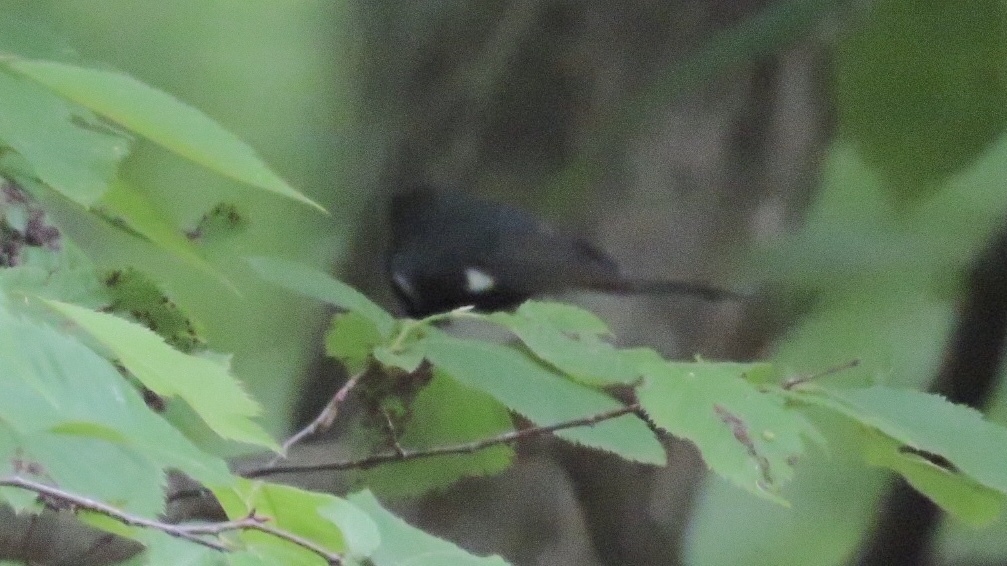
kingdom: Animalia
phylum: Chordata
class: Aves
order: Passeriformes
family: Parulidae
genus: Setophaga
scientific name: Setophaga caerulescens
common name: Black-throated blue warbler
